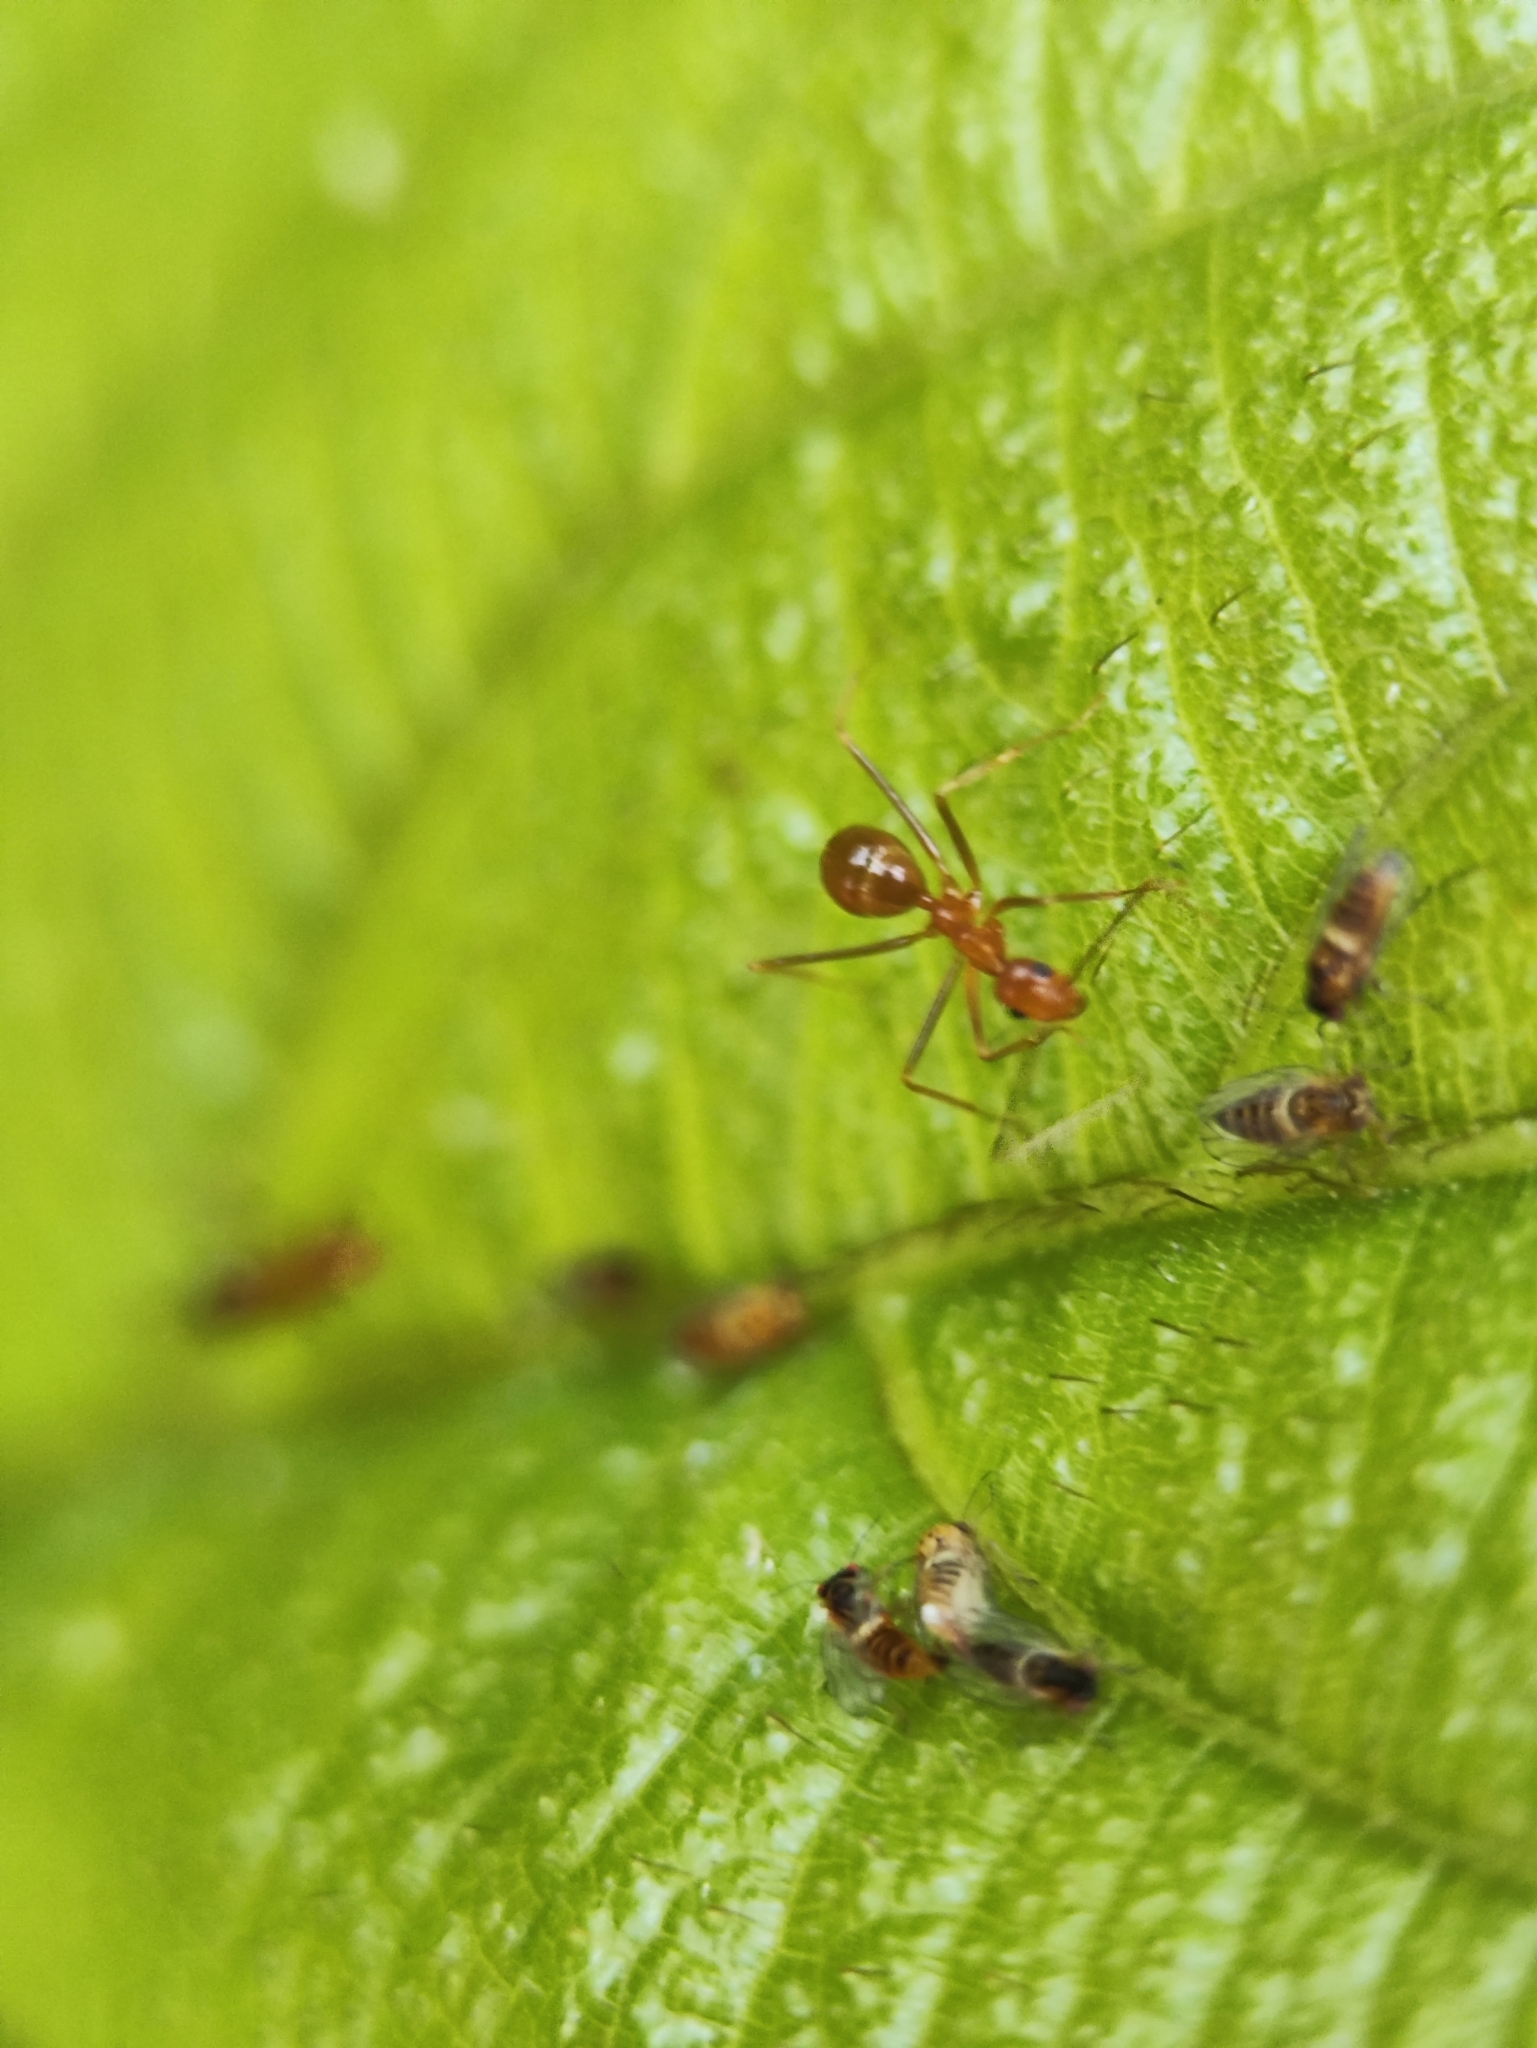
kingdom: Animalia
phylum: Arthropoda
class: Insecta
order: Hymenoptera
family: Formicidae
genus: Anoplolepis
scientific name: Anoplolepis gracilipes
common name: Ant
